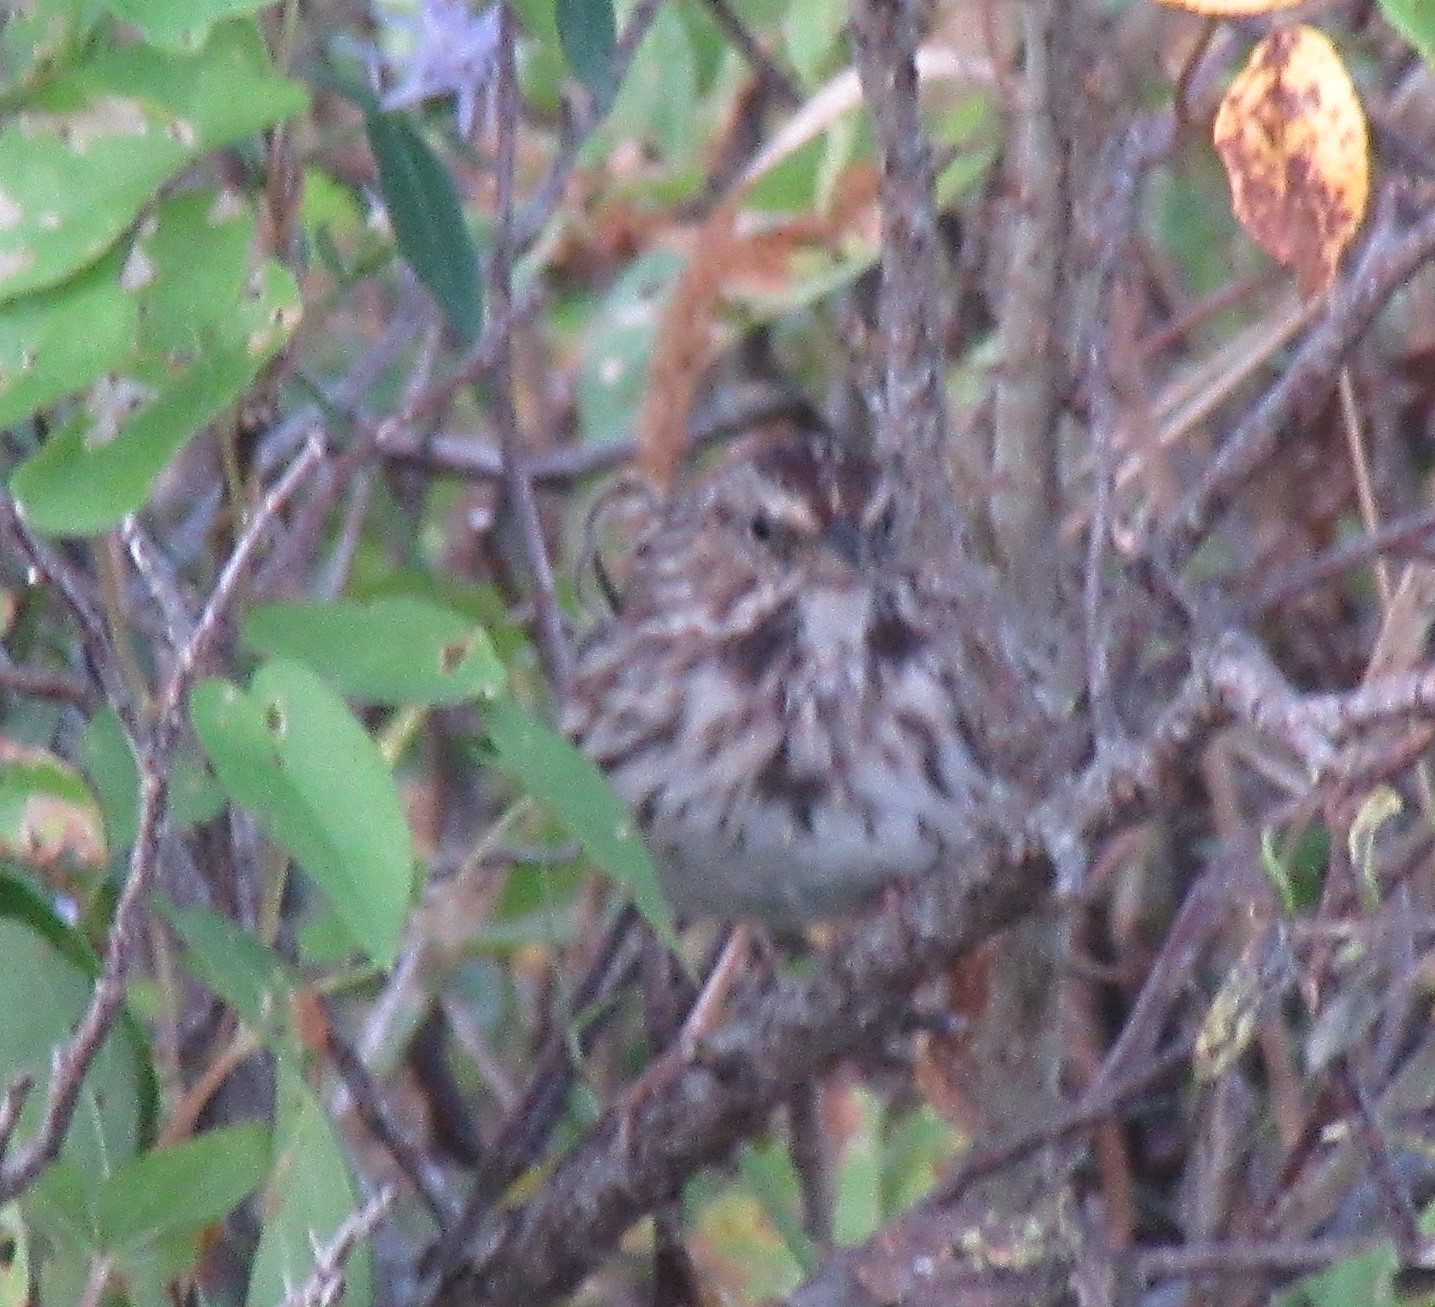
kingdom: Animalia
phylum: Chordata
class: Aves
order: Passeriformes
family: Passerellidae
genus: Melospiza
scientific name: Melospiza melodia
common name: Song sparrow
